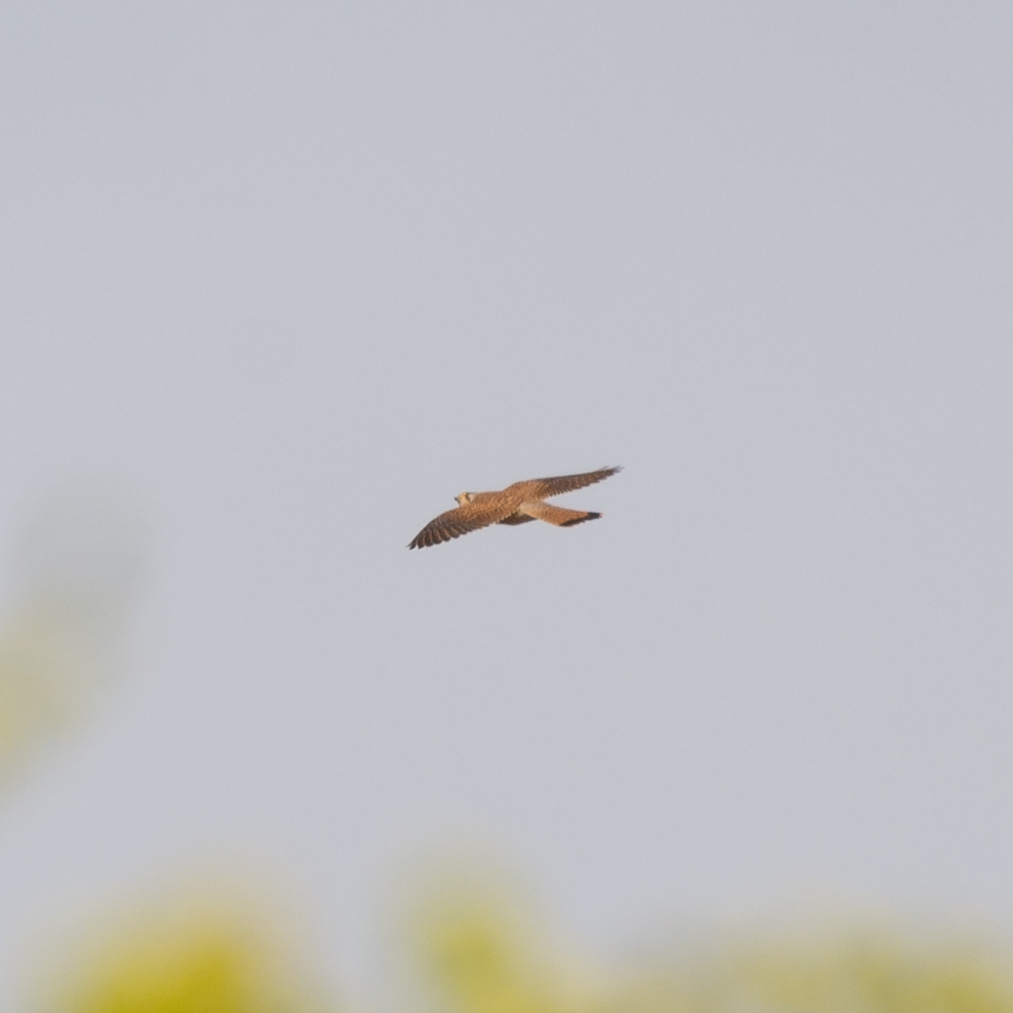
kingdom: Animalia
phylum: Chordata
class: Aves
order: Falconiformes
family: Falconidae
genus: Falco
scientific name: Falco tinnunculus
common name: Common kestrel
